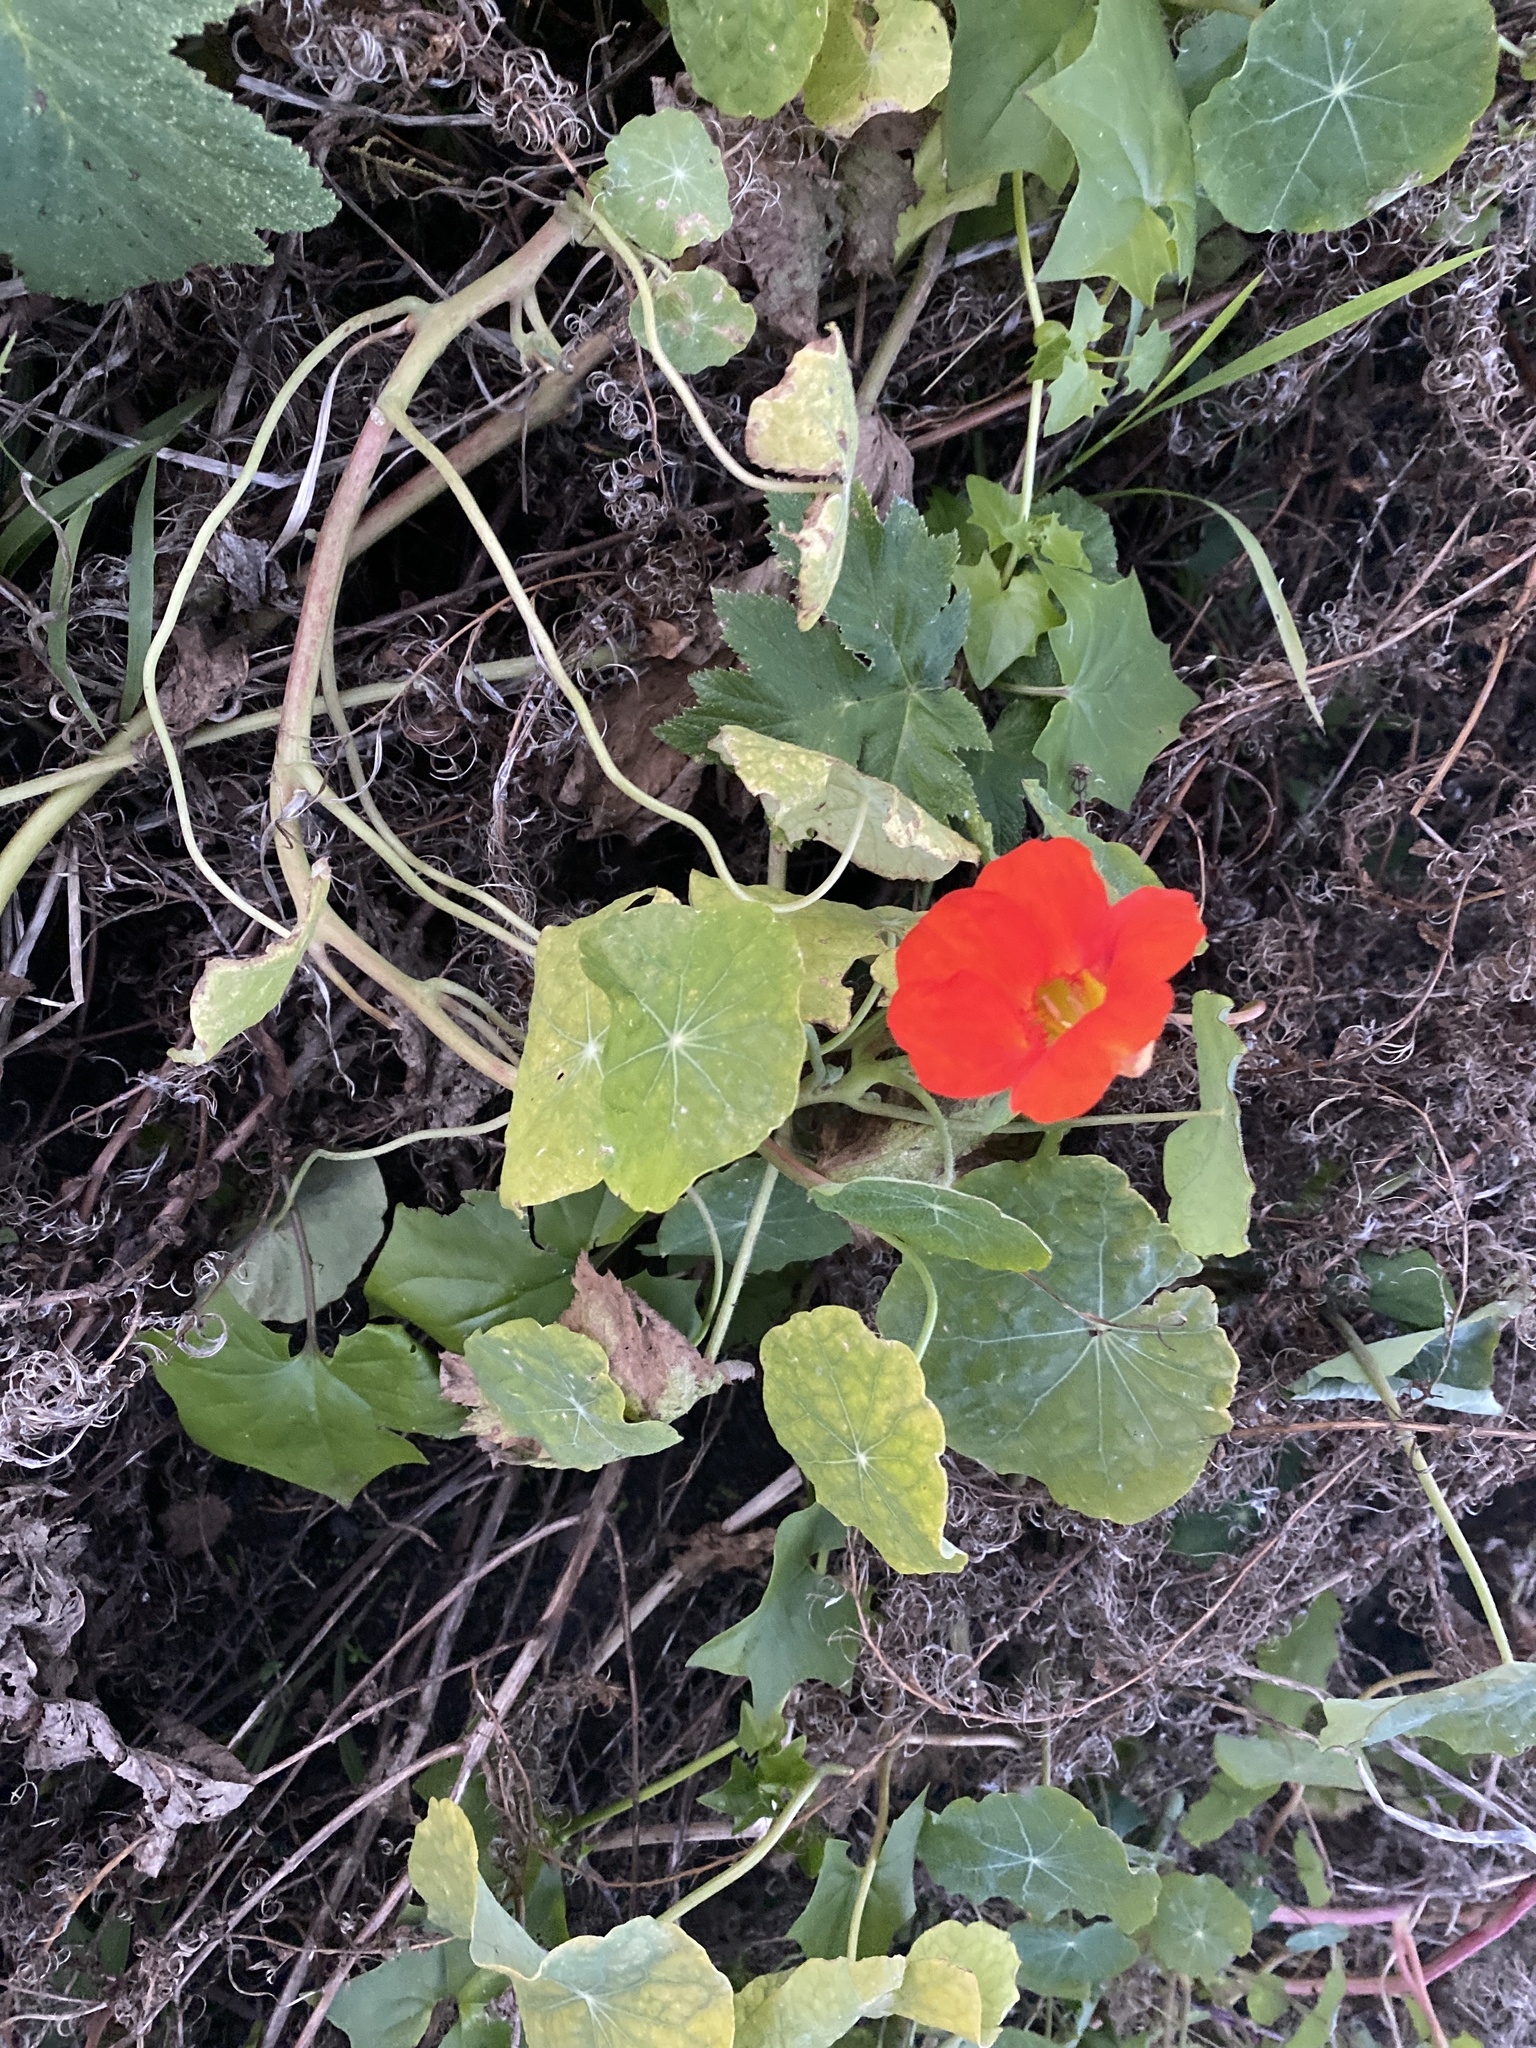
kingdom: Plantae
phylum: Tracheophyta
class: Magnoliopsida
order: Brassicales
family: Tropaeolaceae
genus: Tropaeolum
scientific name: Tropaeolum majus
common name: Nasturtium
